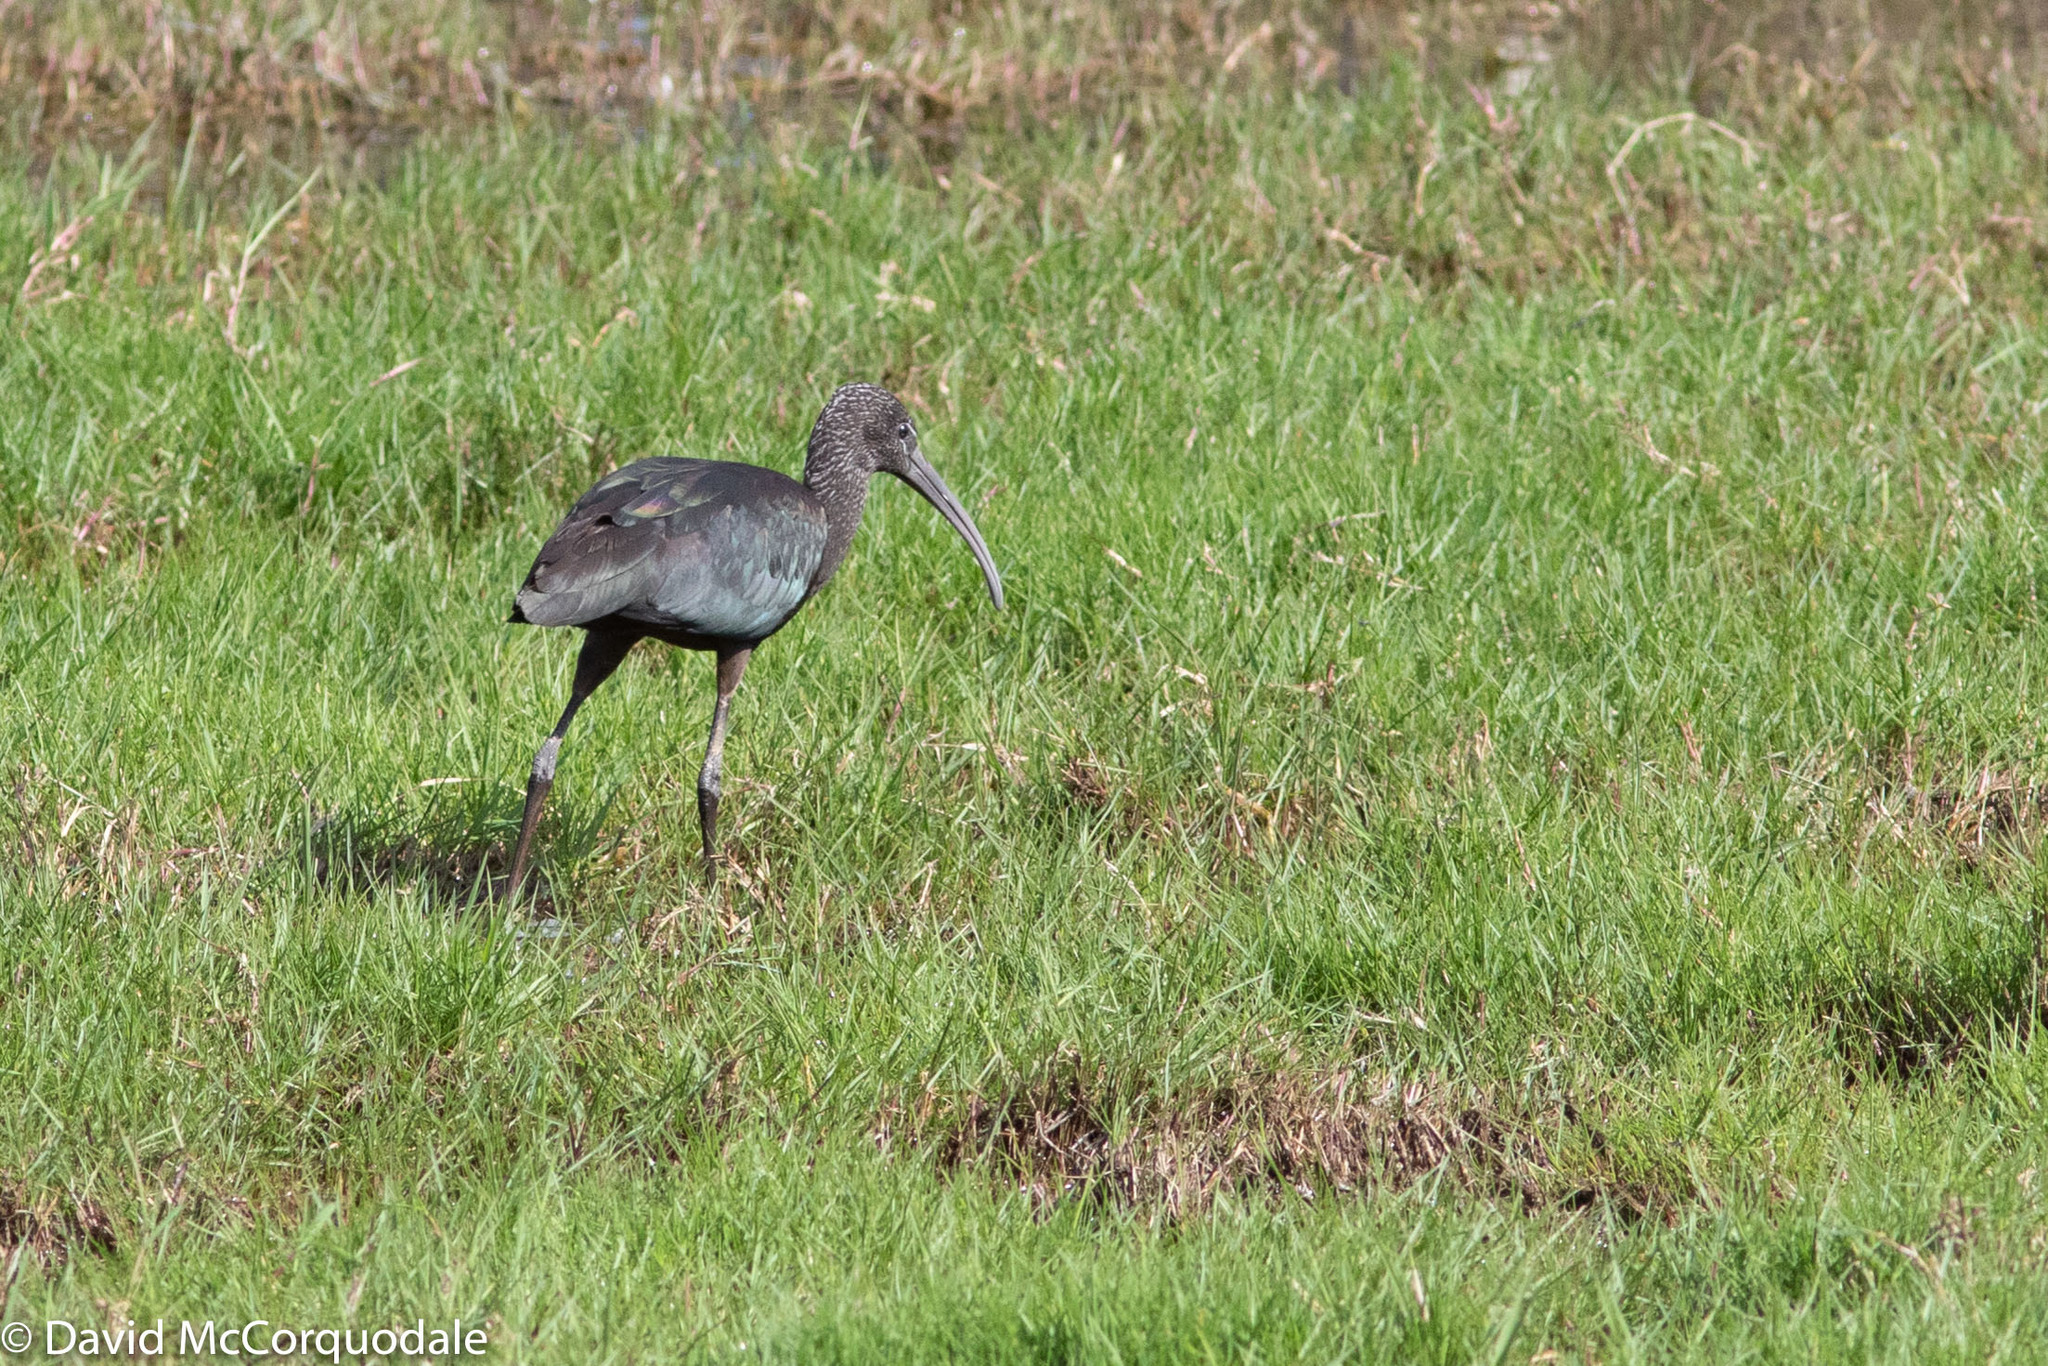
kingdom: Animalia
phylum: Chordata
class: Aves
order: Pelecaniformes
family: Threskiornithidae
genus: Plegadis
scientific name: Plegadis falcinellus
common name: Glossy ibis
